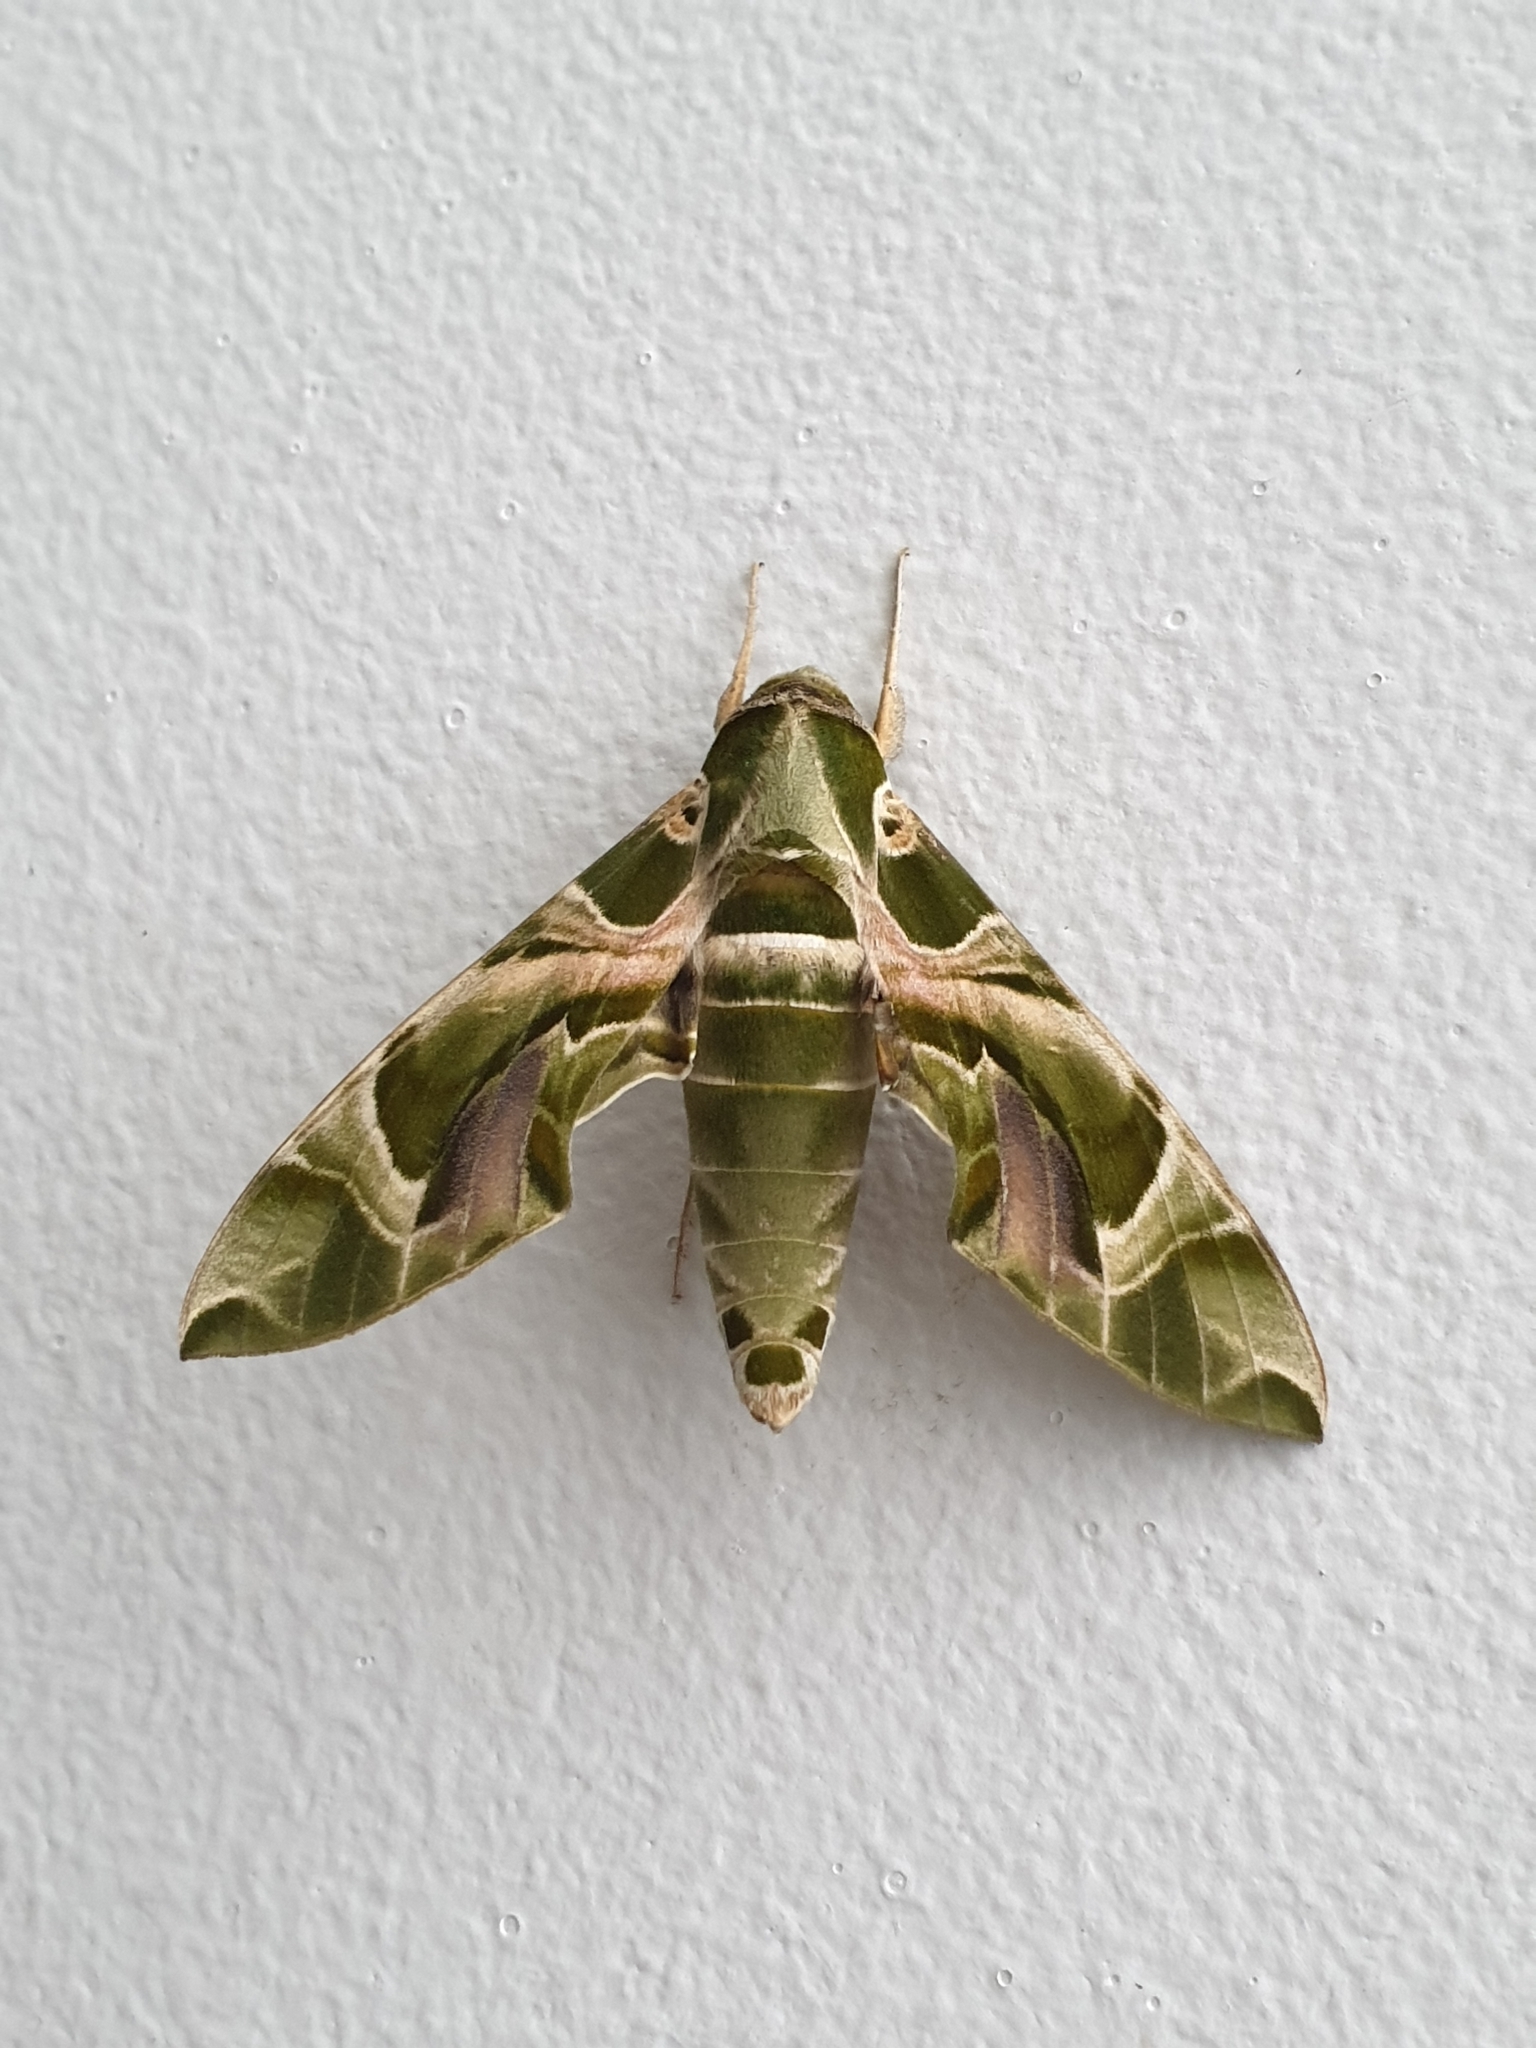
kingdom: Animalia
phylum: Arthropoda
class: Insecta
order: Lepidoptera
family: Sphingidae
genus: Daphnis
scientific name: Daphnis nerii
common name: Oleander hawk-moth
